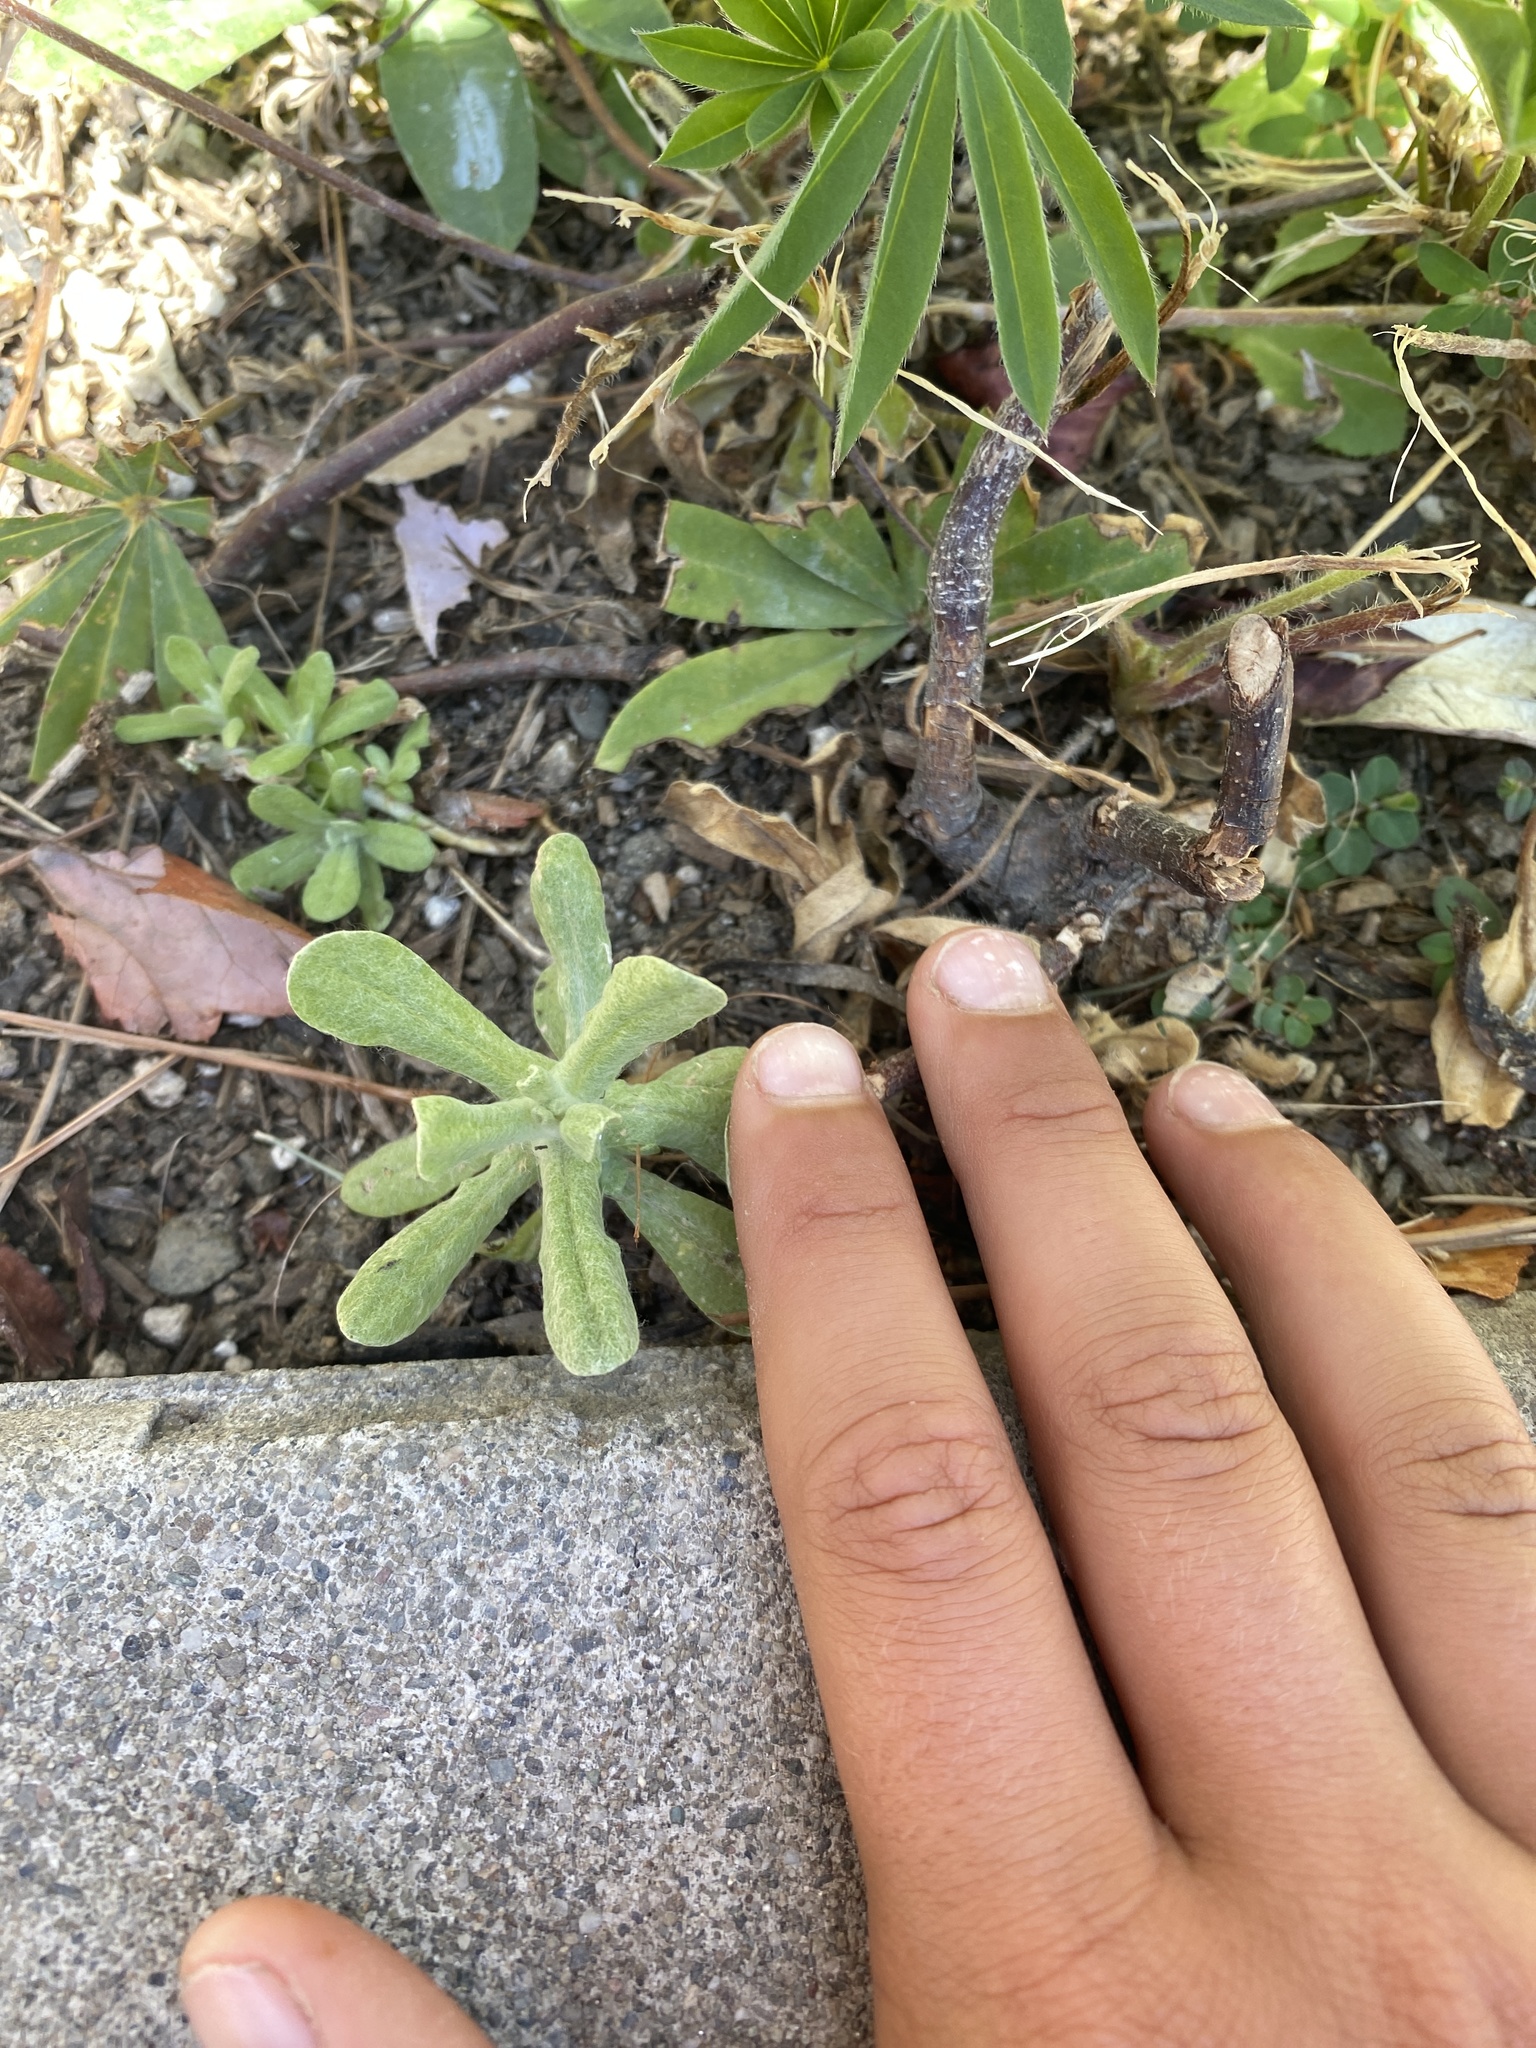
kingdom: Plantae
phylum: Tracheophyta
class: Magnoliopsida
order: Asterales
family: Asteraceae
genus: Helichrysum
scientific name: Helichrysum luteoalbum
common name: Daisy
